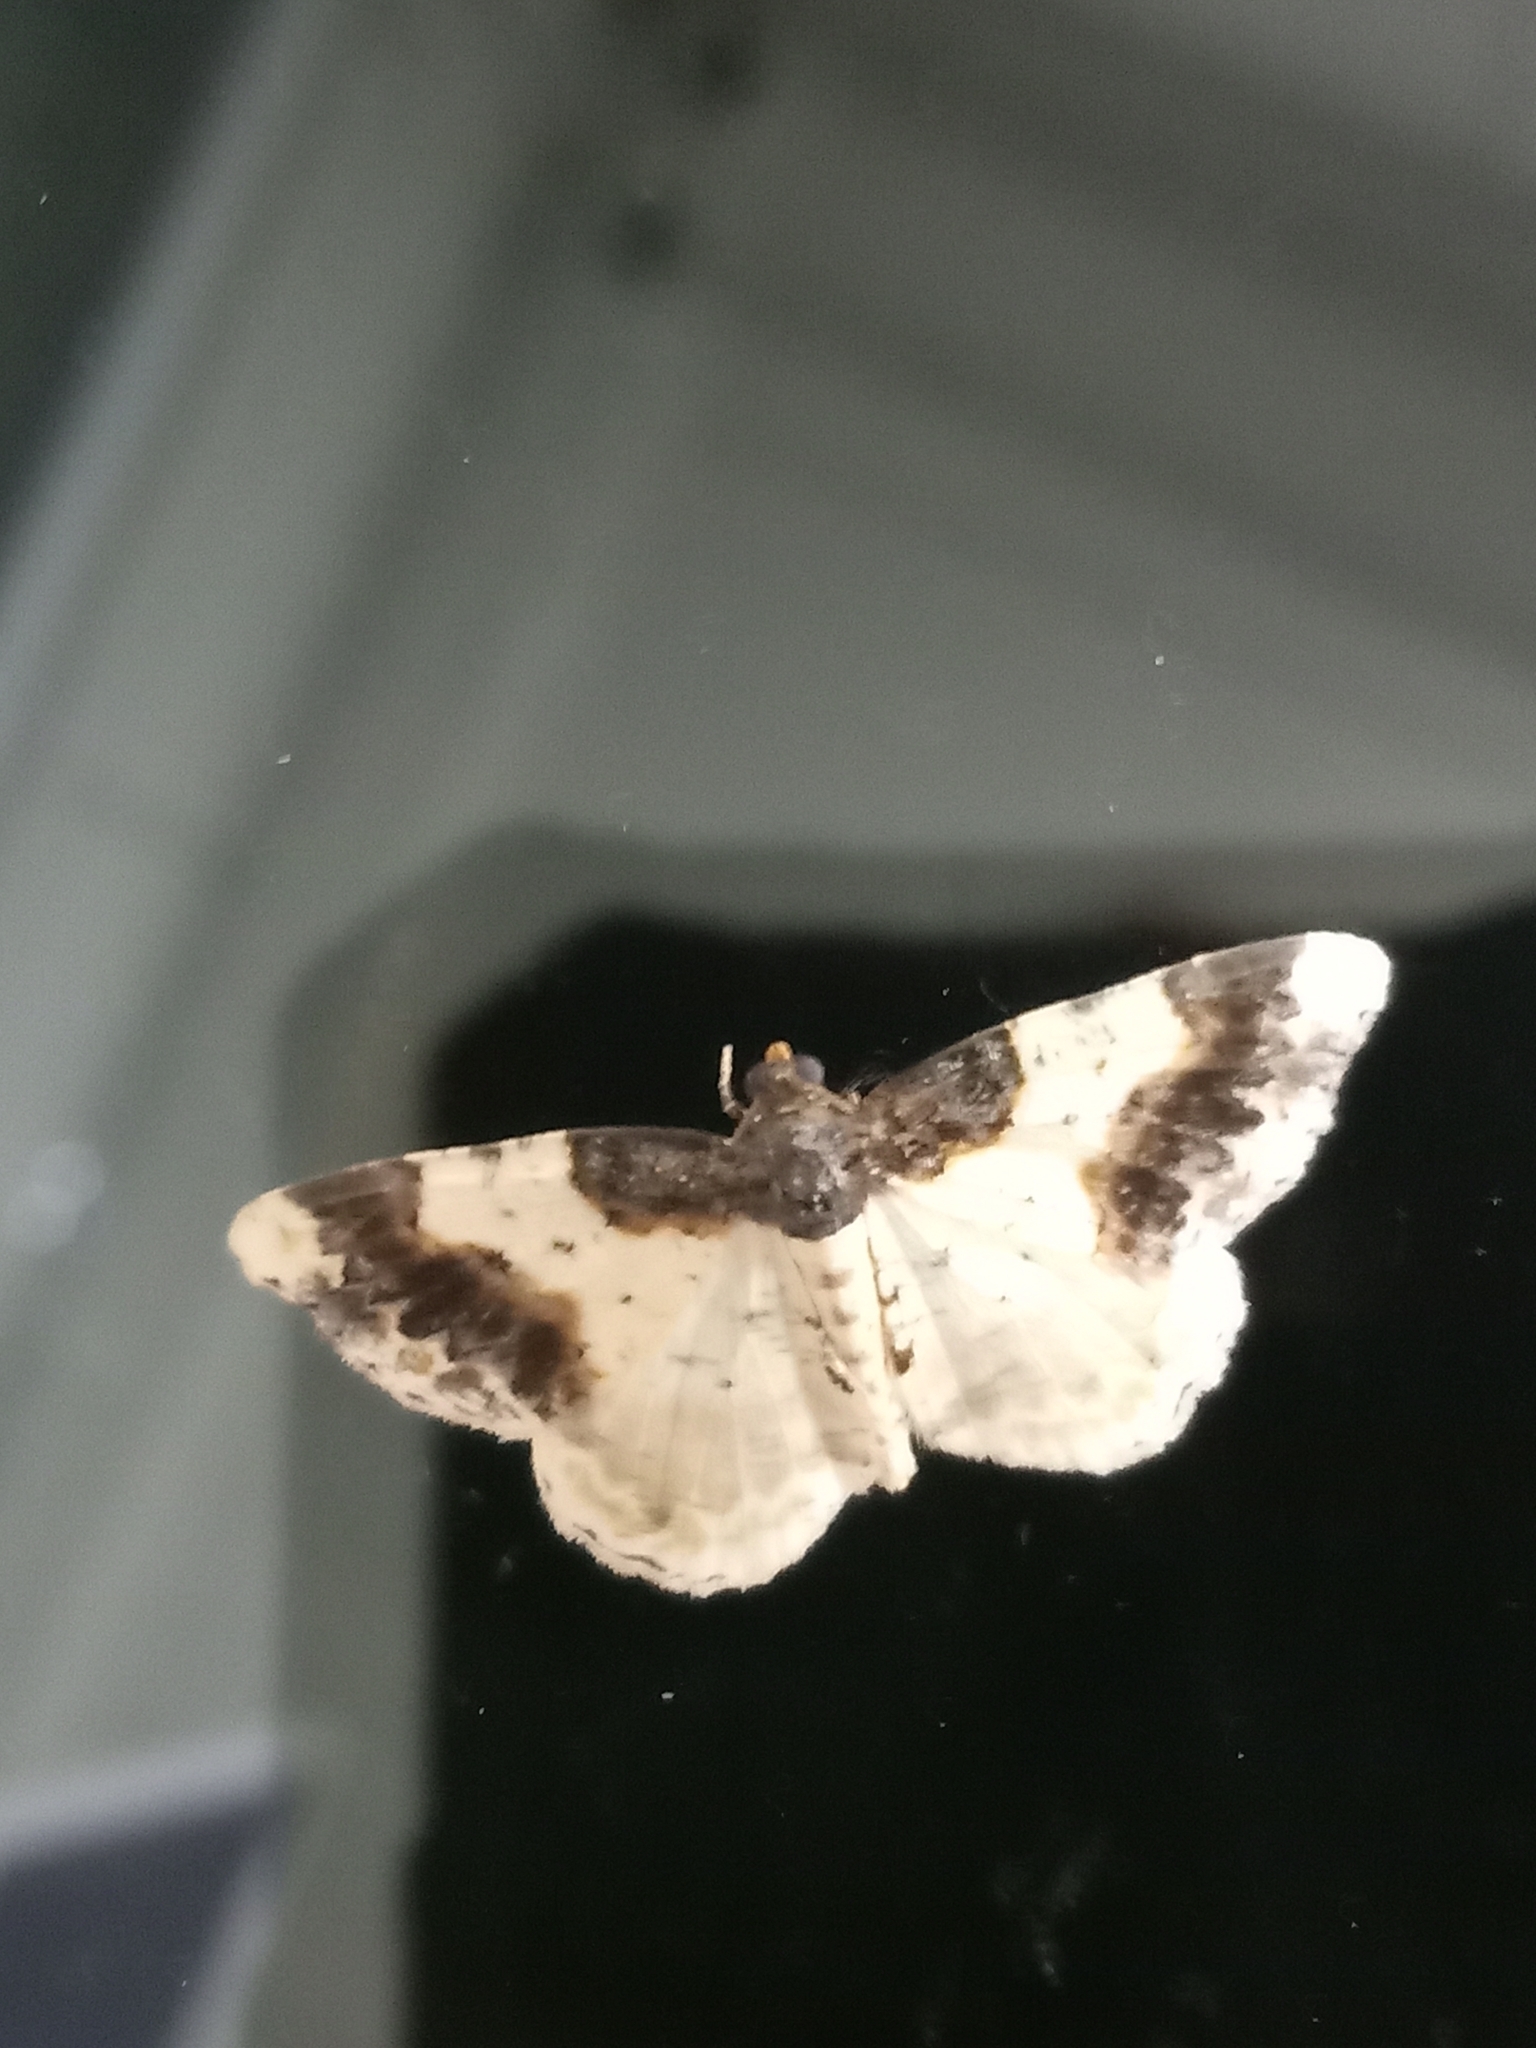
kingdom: Animalia
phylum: Arthropoda
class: Insecta
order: Lepidoptera
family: Geometridae
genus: Ligdia
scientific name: Ligdia adustata
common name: Scorched carpet
